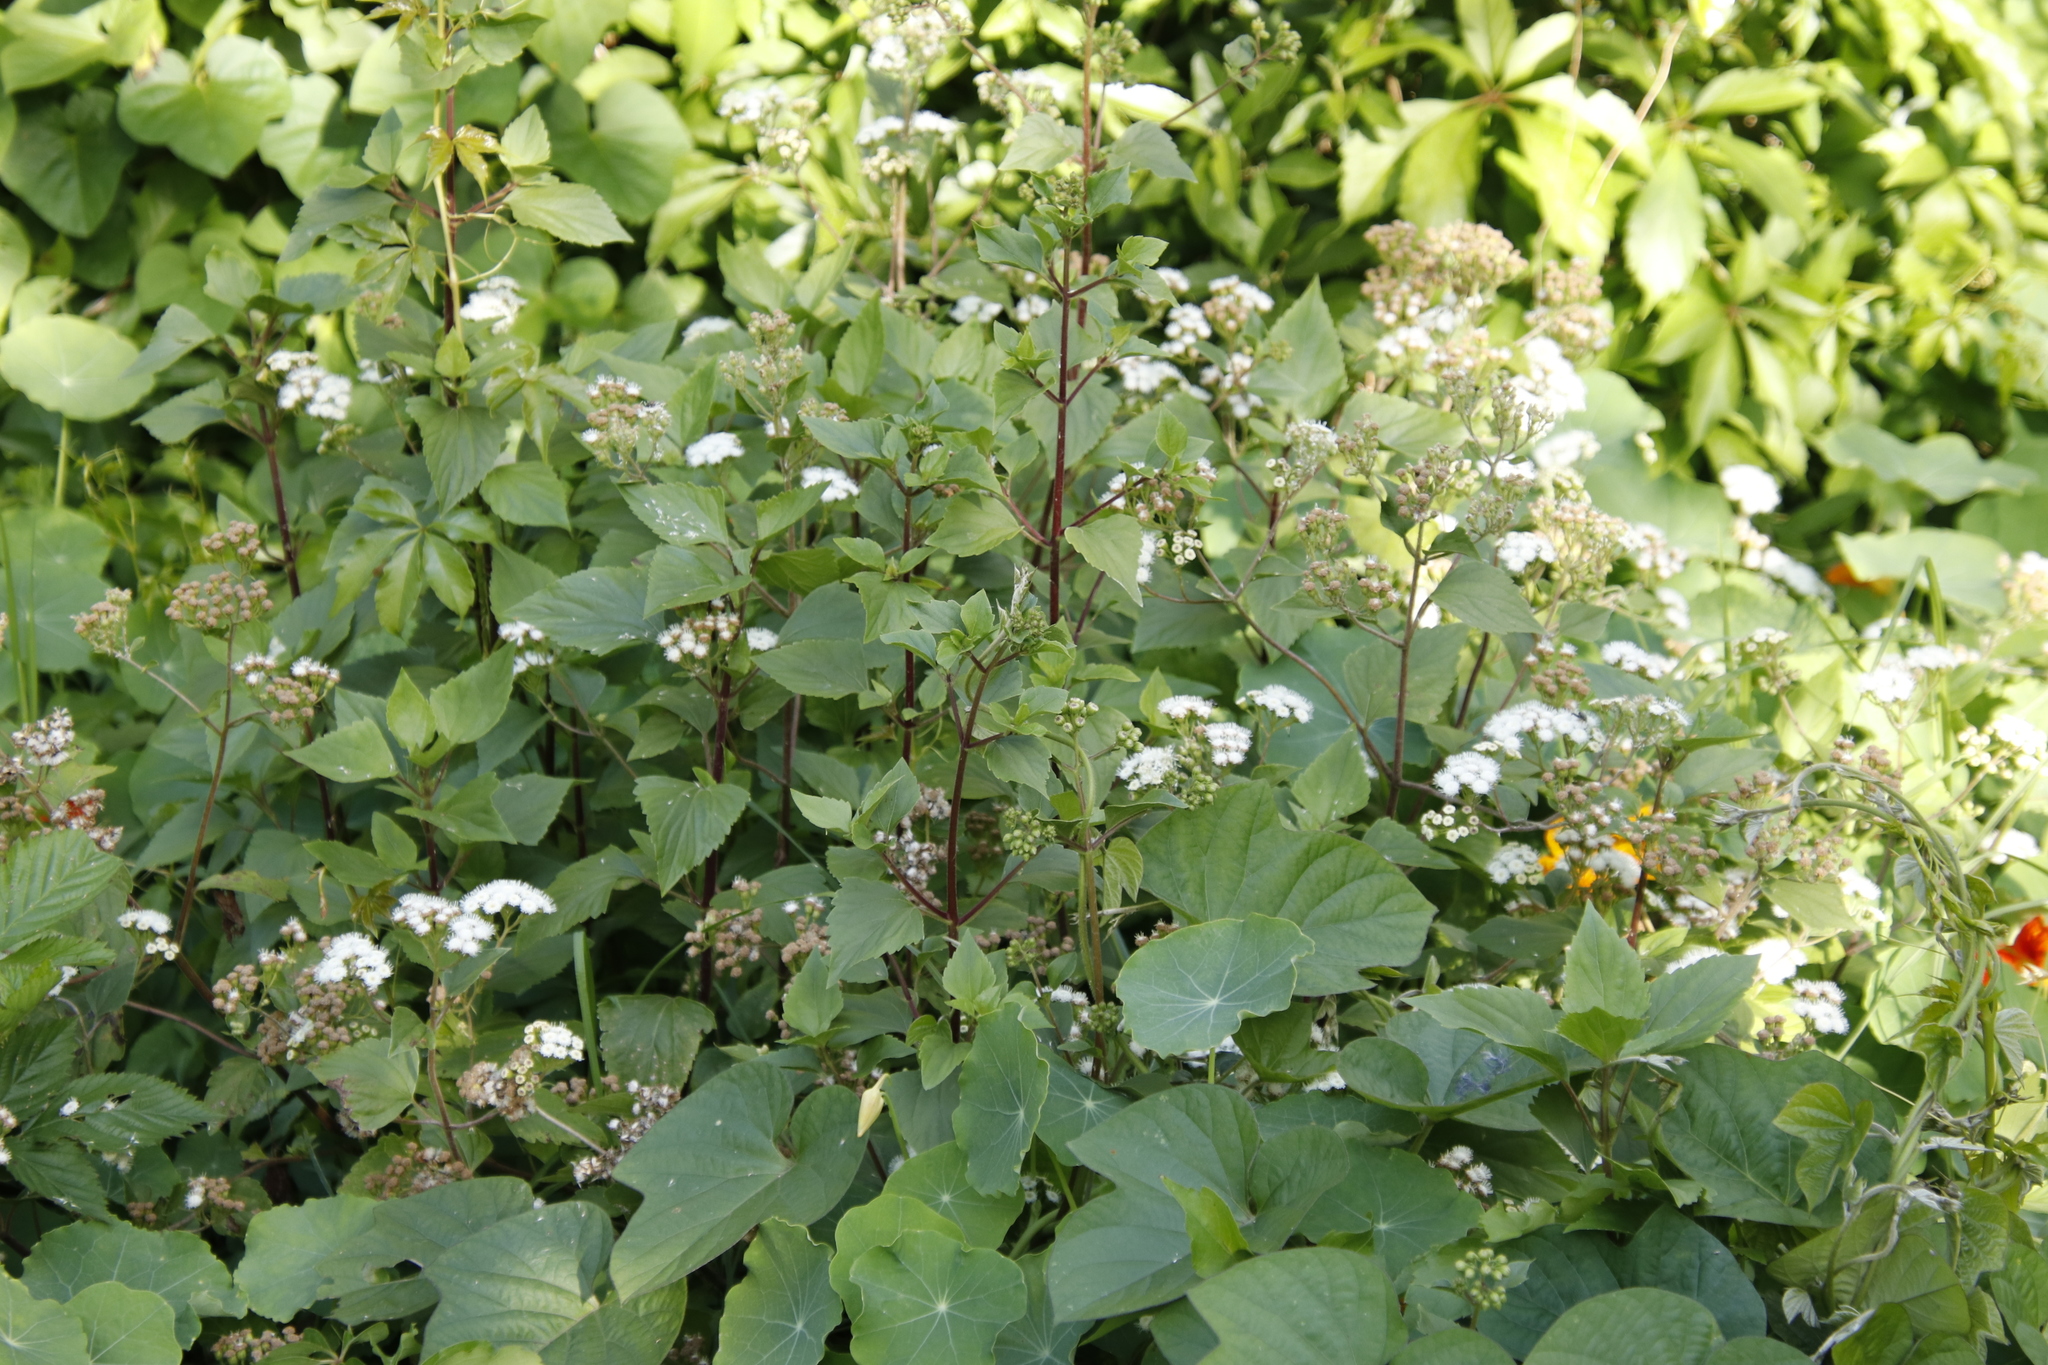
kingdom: Plantae
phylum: Tracheophyta
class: Magnoliopsida
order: Asterales
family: Asteraceae
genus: Ageratina
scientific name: Ageratina adenophora
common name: Sticky snakeroot
